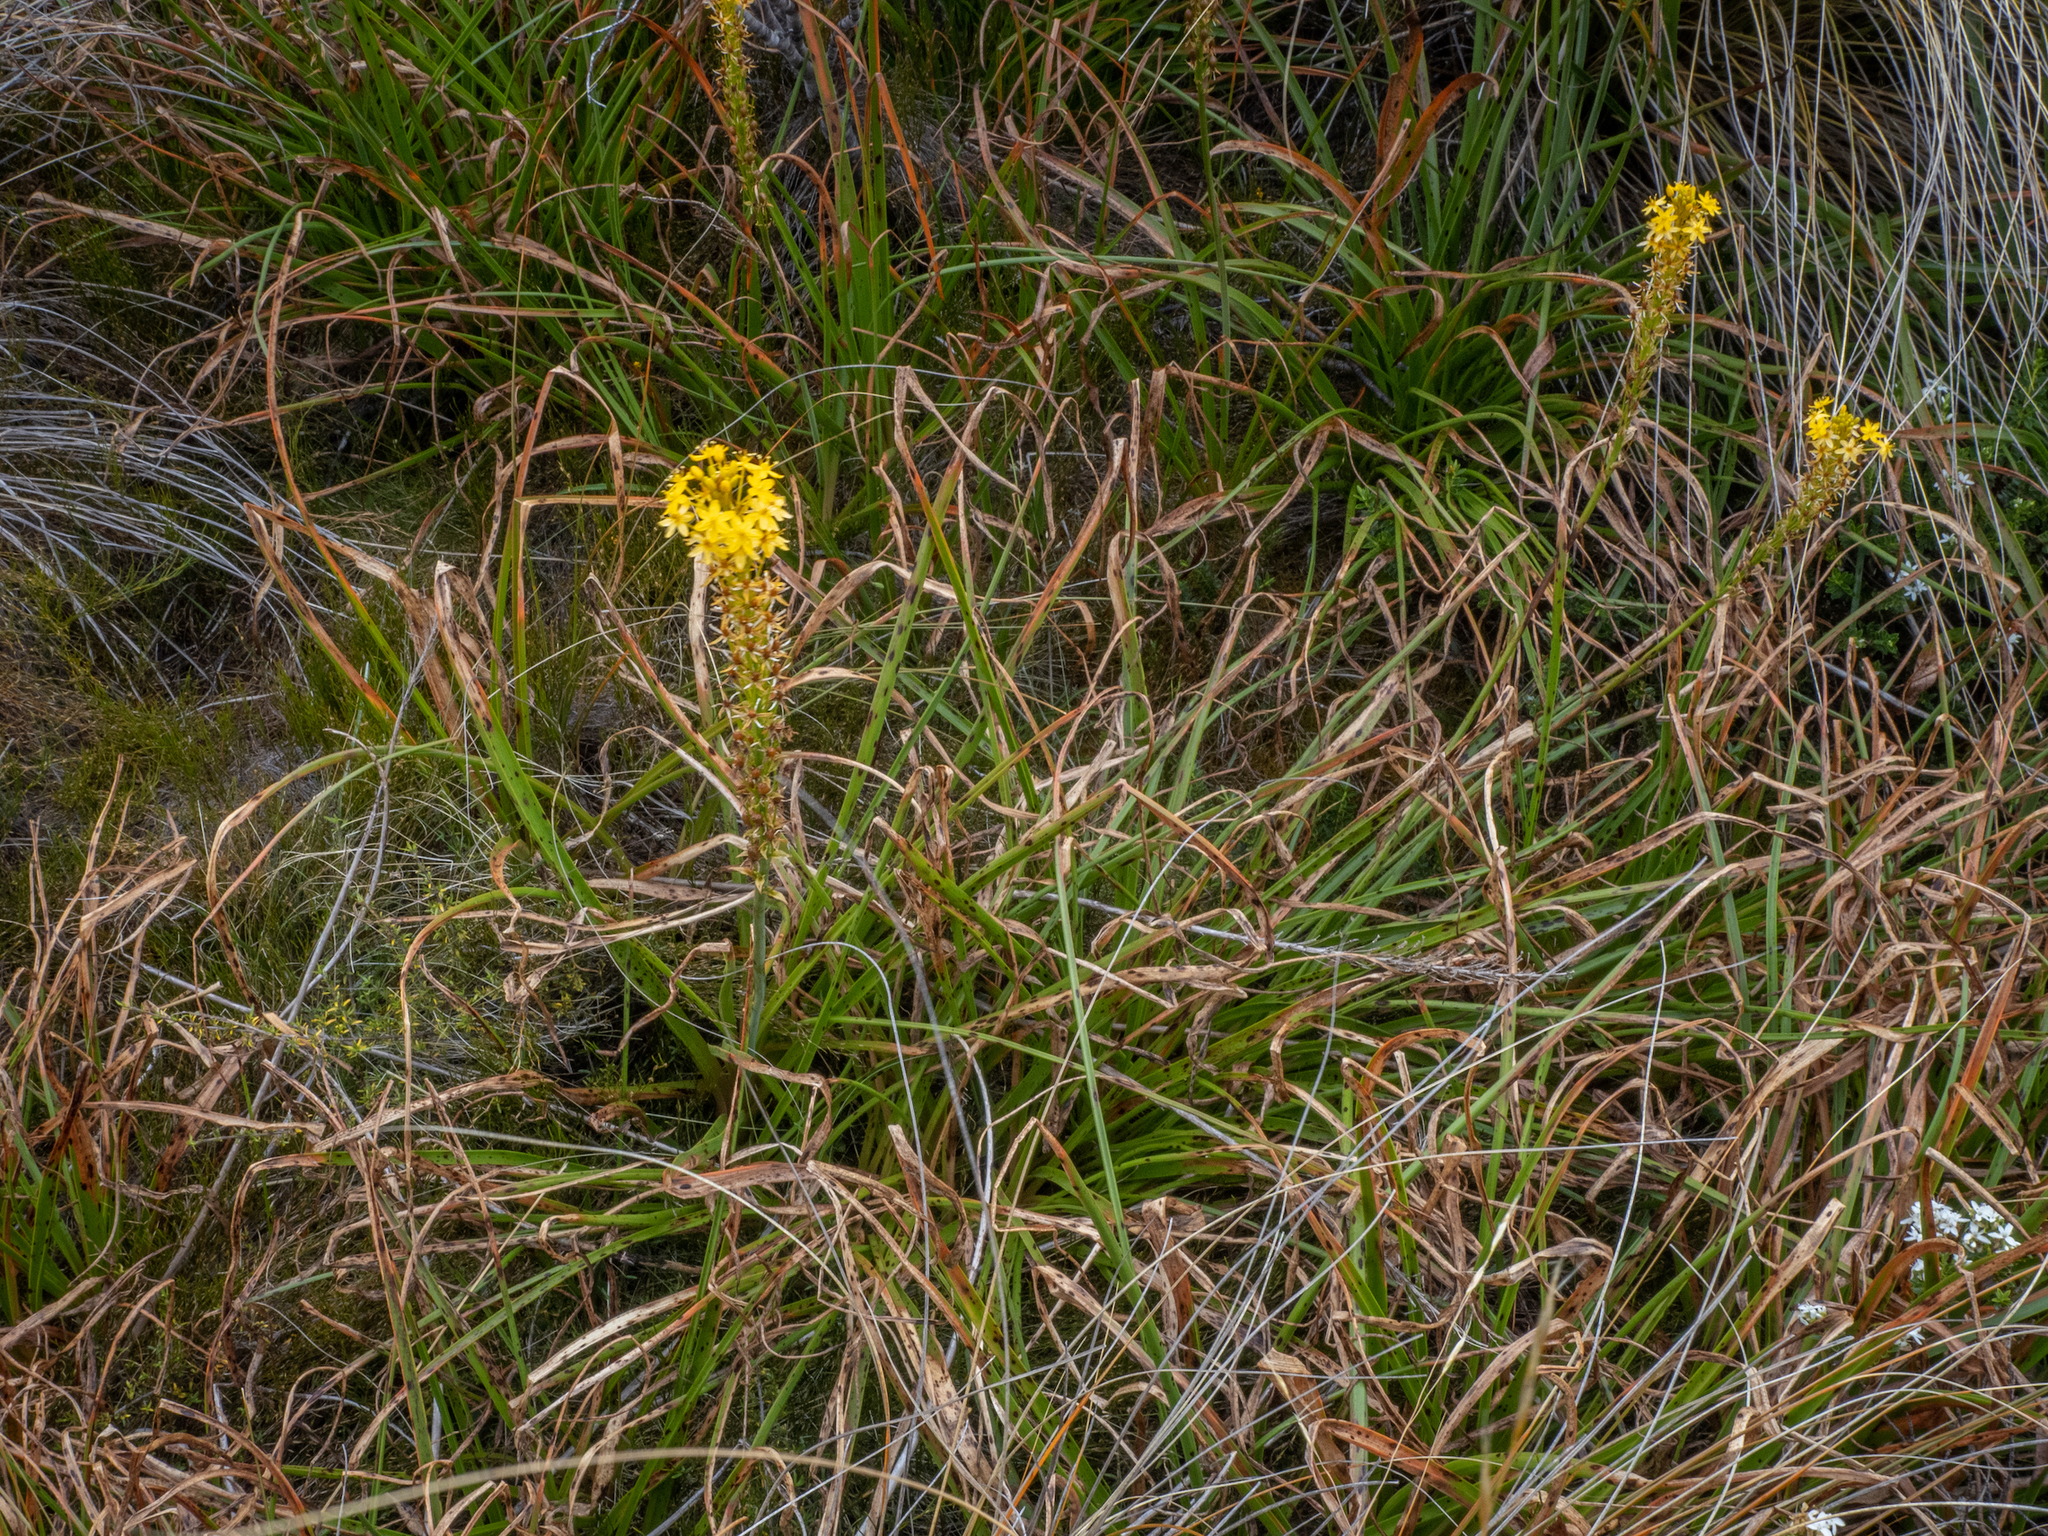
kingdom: Plantae
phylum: Tracheophyta
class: Liliopsida
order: Asparagales
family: Asphodelaceae
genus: Bulbinella
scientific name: Bulbinella hookeri
